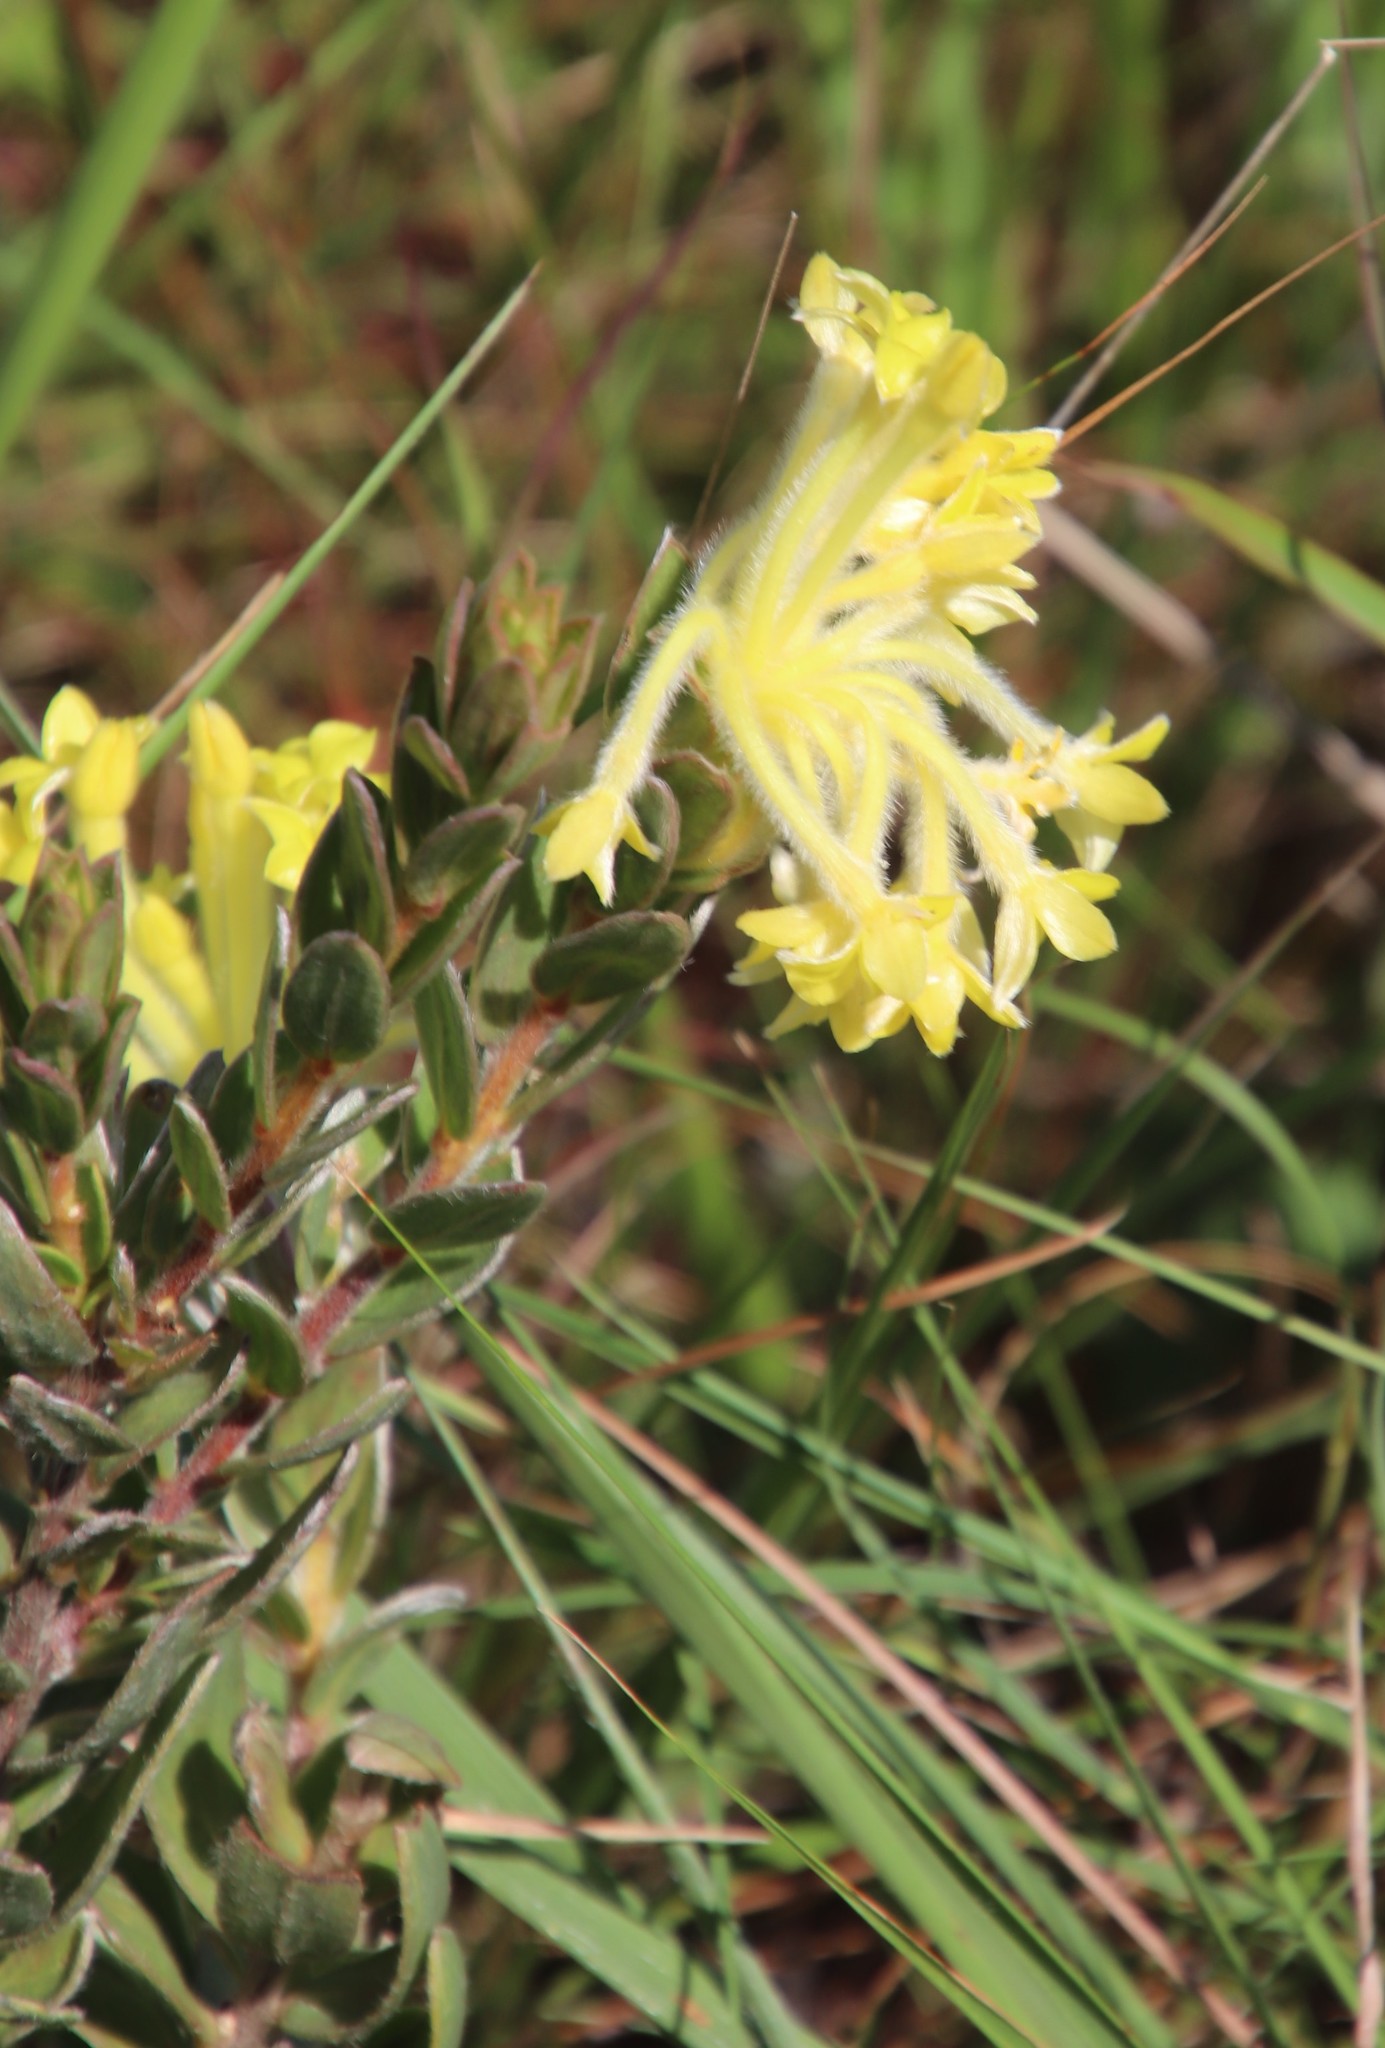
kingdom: Plantae
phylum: Tracheophyta
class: Magnoliopsida
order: Malvales
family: Thymelaeaceae
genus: Gnidia
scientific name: Gnidia anthylloides
